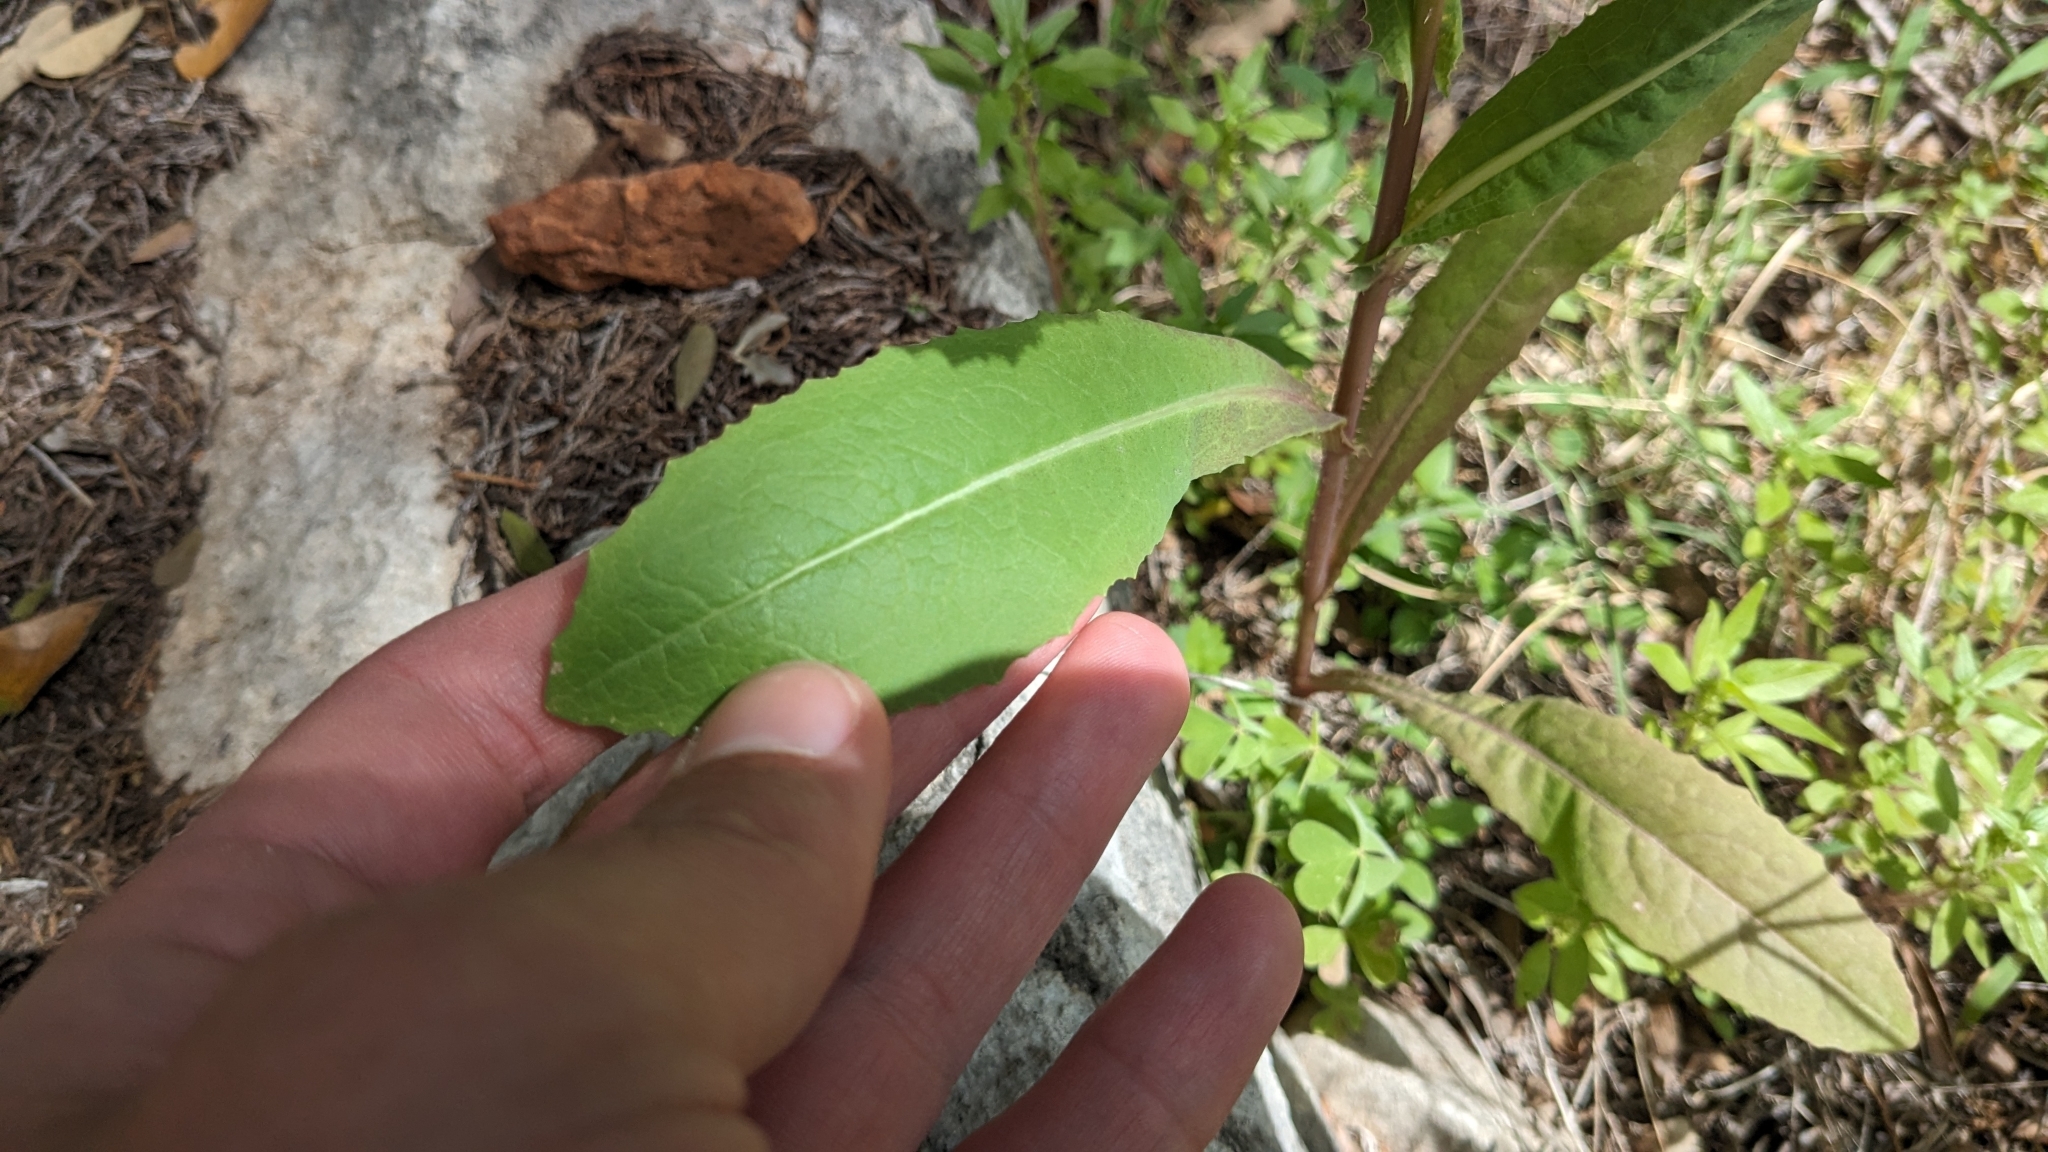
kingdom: Plantae
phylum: Tracheophyta
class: Magnoliopsida
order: Asterales
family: Asteraceae
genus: Lactuca
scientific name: Lactuca serriola
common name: Prickly lettuce
